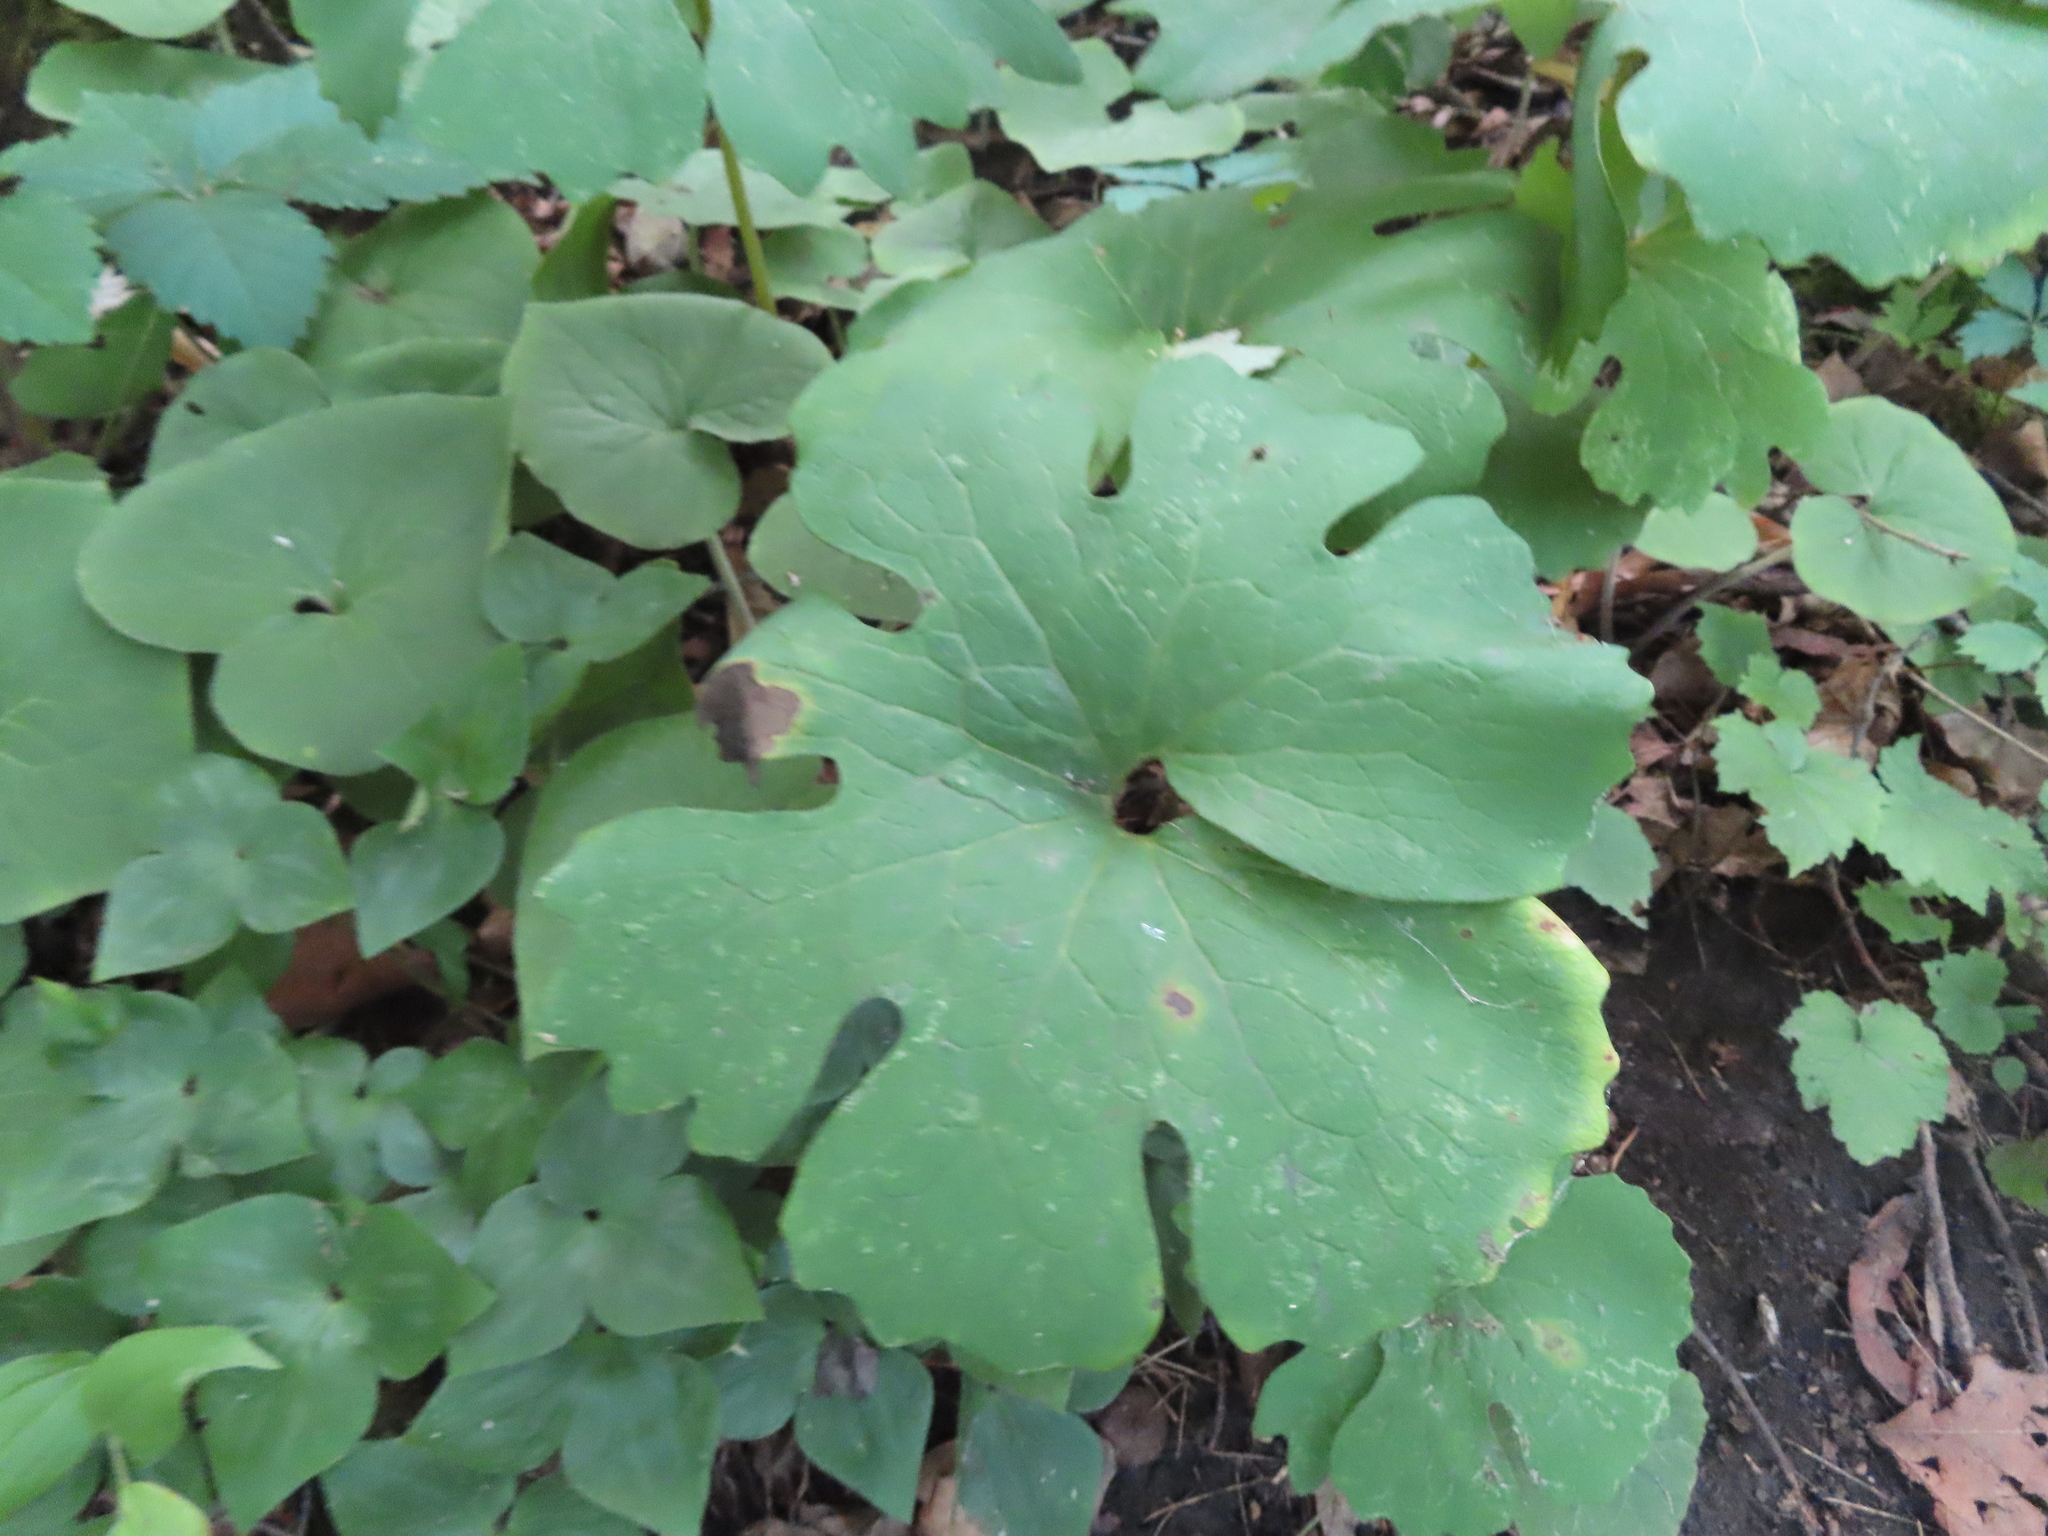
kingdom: Plantae
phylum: Tracheophyta
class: Magnoliopsida
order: Ranunculales
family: Papaveraceae
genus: Sanguinaria
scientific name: Sanguinaria canadensis
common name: Bloodroot
